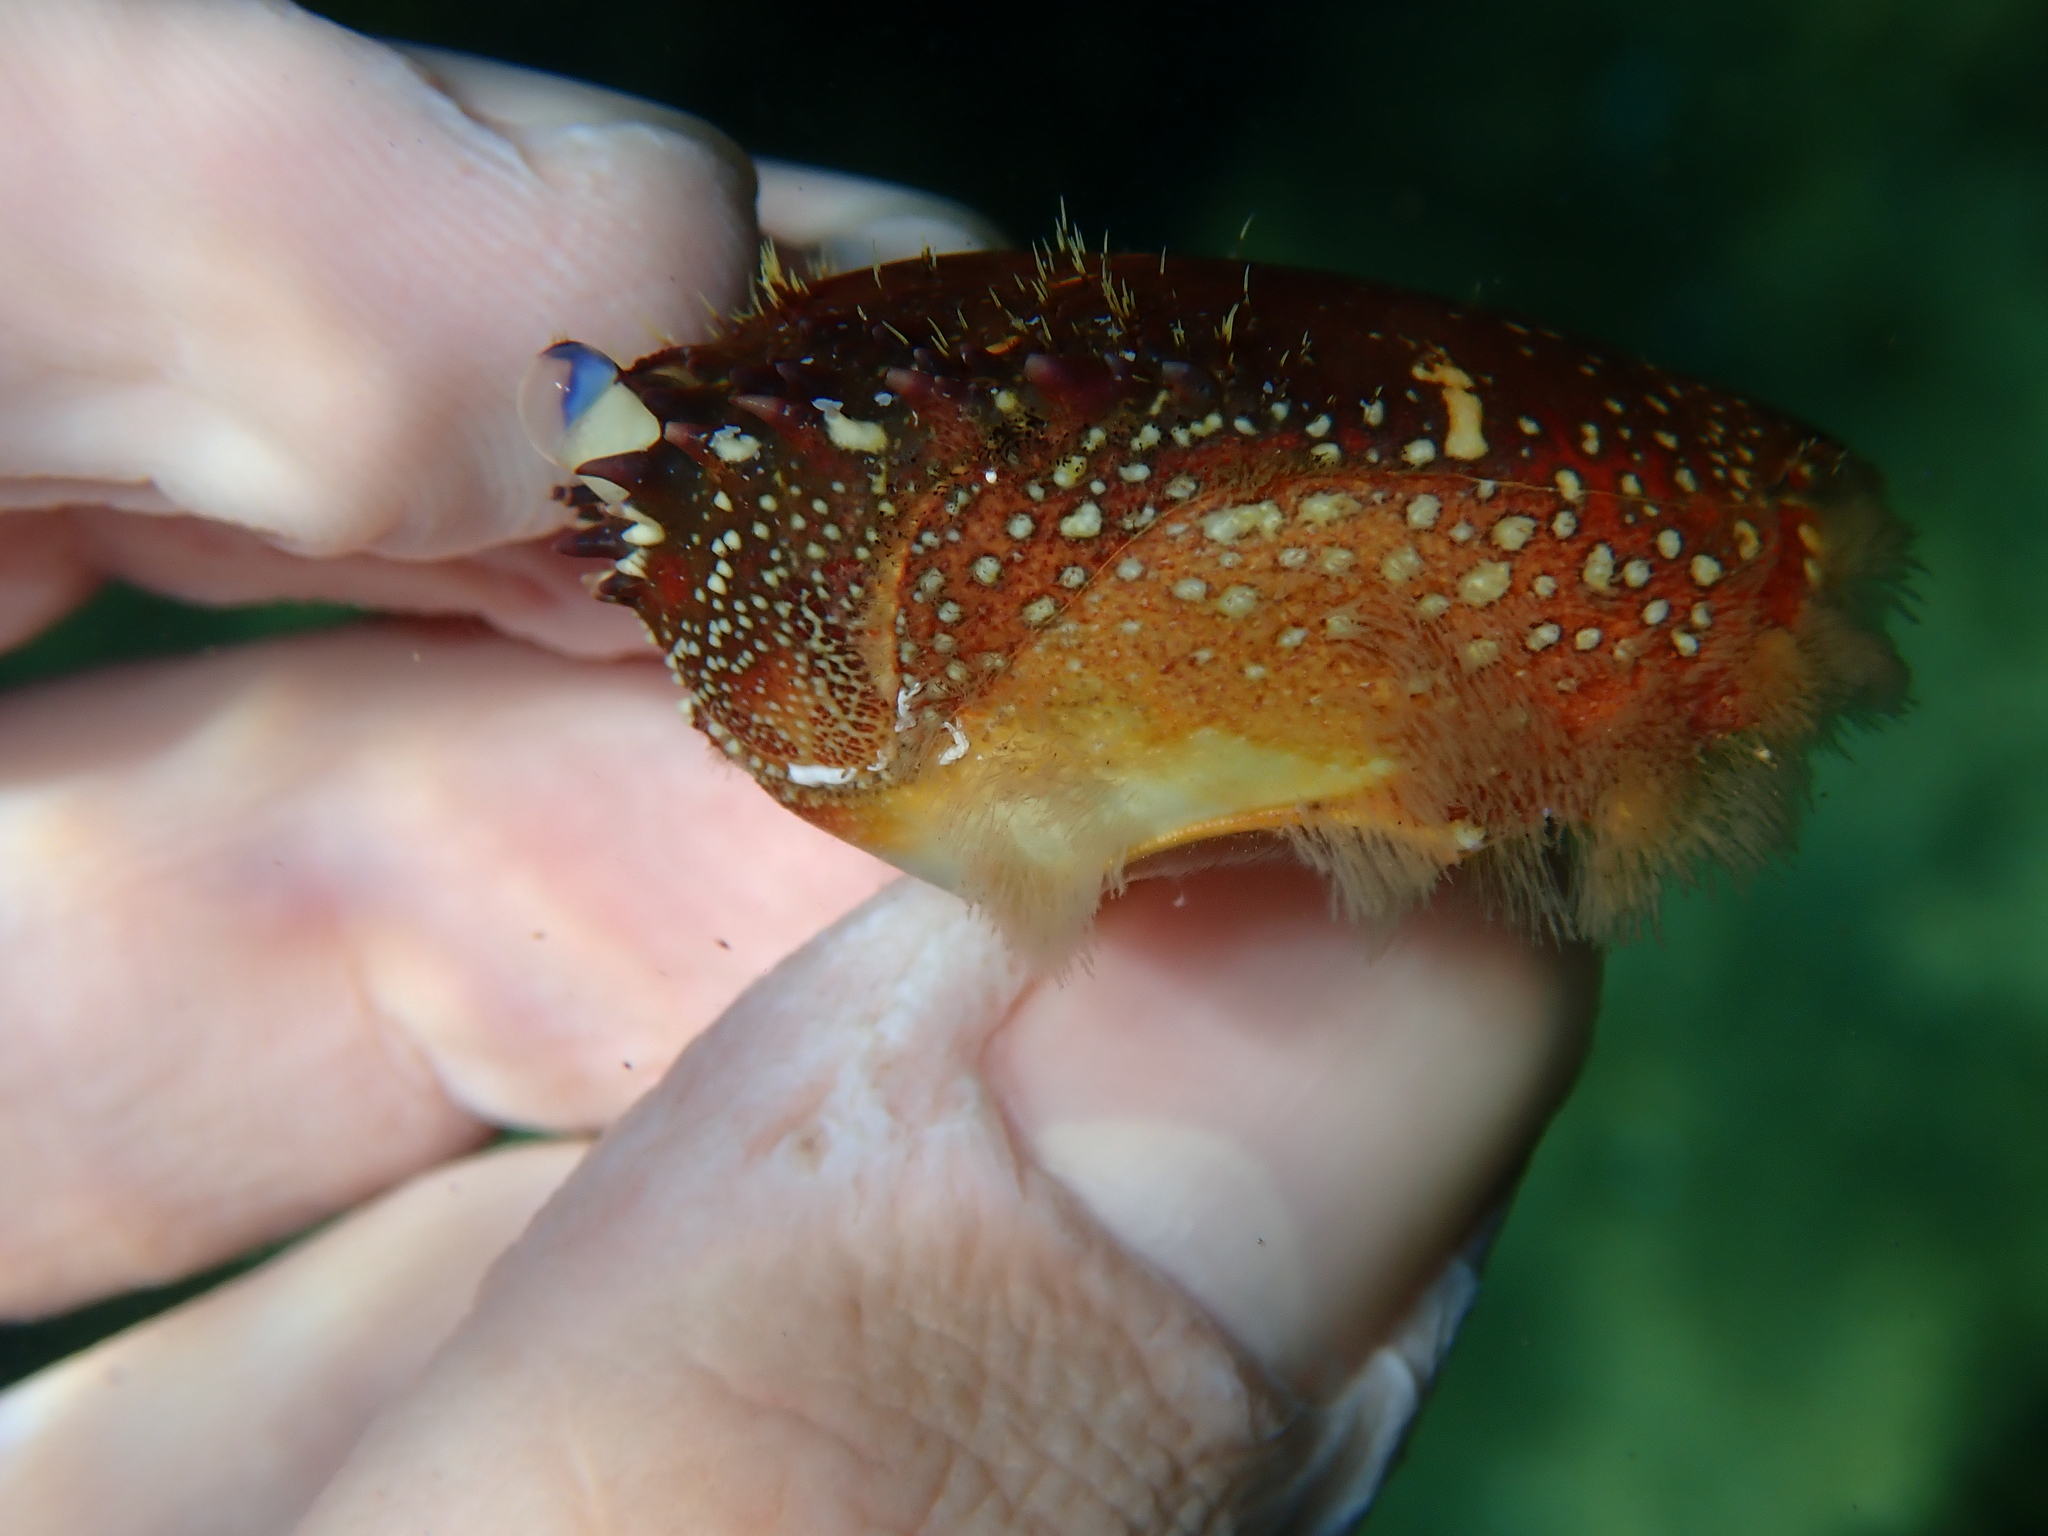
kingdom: Animalia
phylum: Arthropoda
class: Malacostraca
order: Decapoda
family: Eriphiidae
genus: Eriphia
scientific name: Eriphia verrucosa
